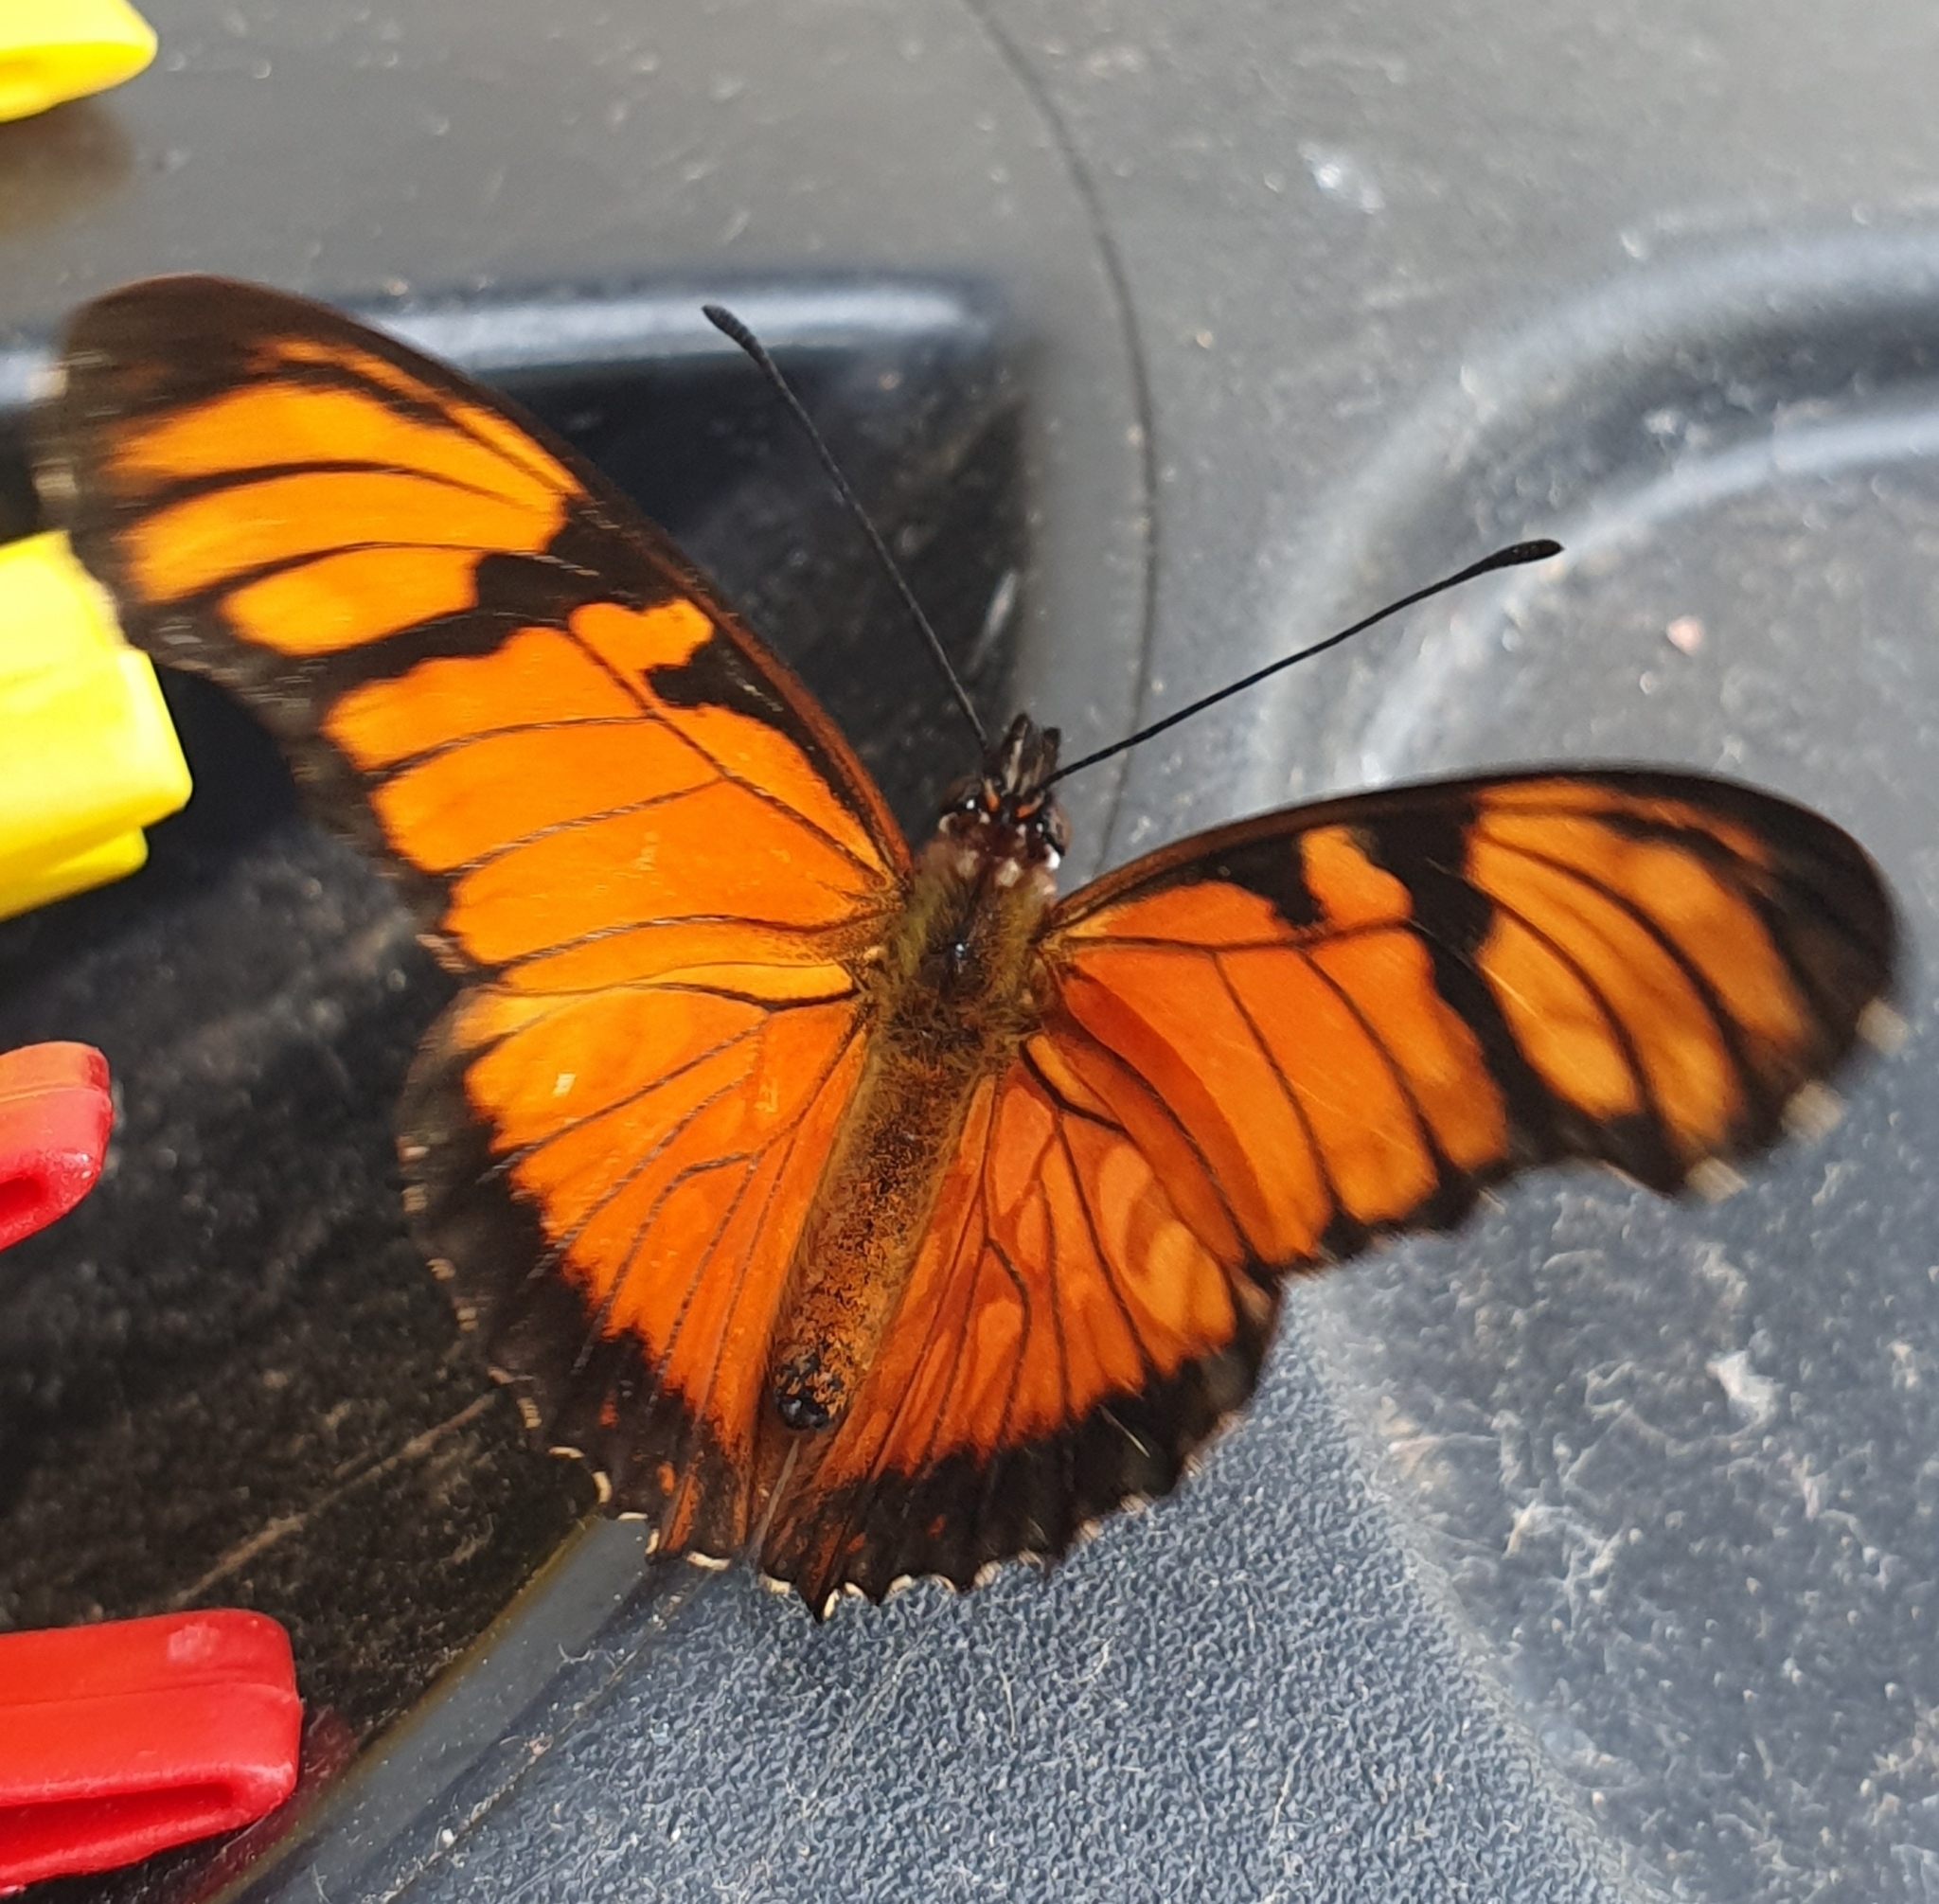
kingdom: Animalia
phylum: Arthropoda
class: Insecta
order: Lepidoptera
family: Nymphalidae
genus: Dione
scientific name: Dione juno
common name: Juno silverspot
